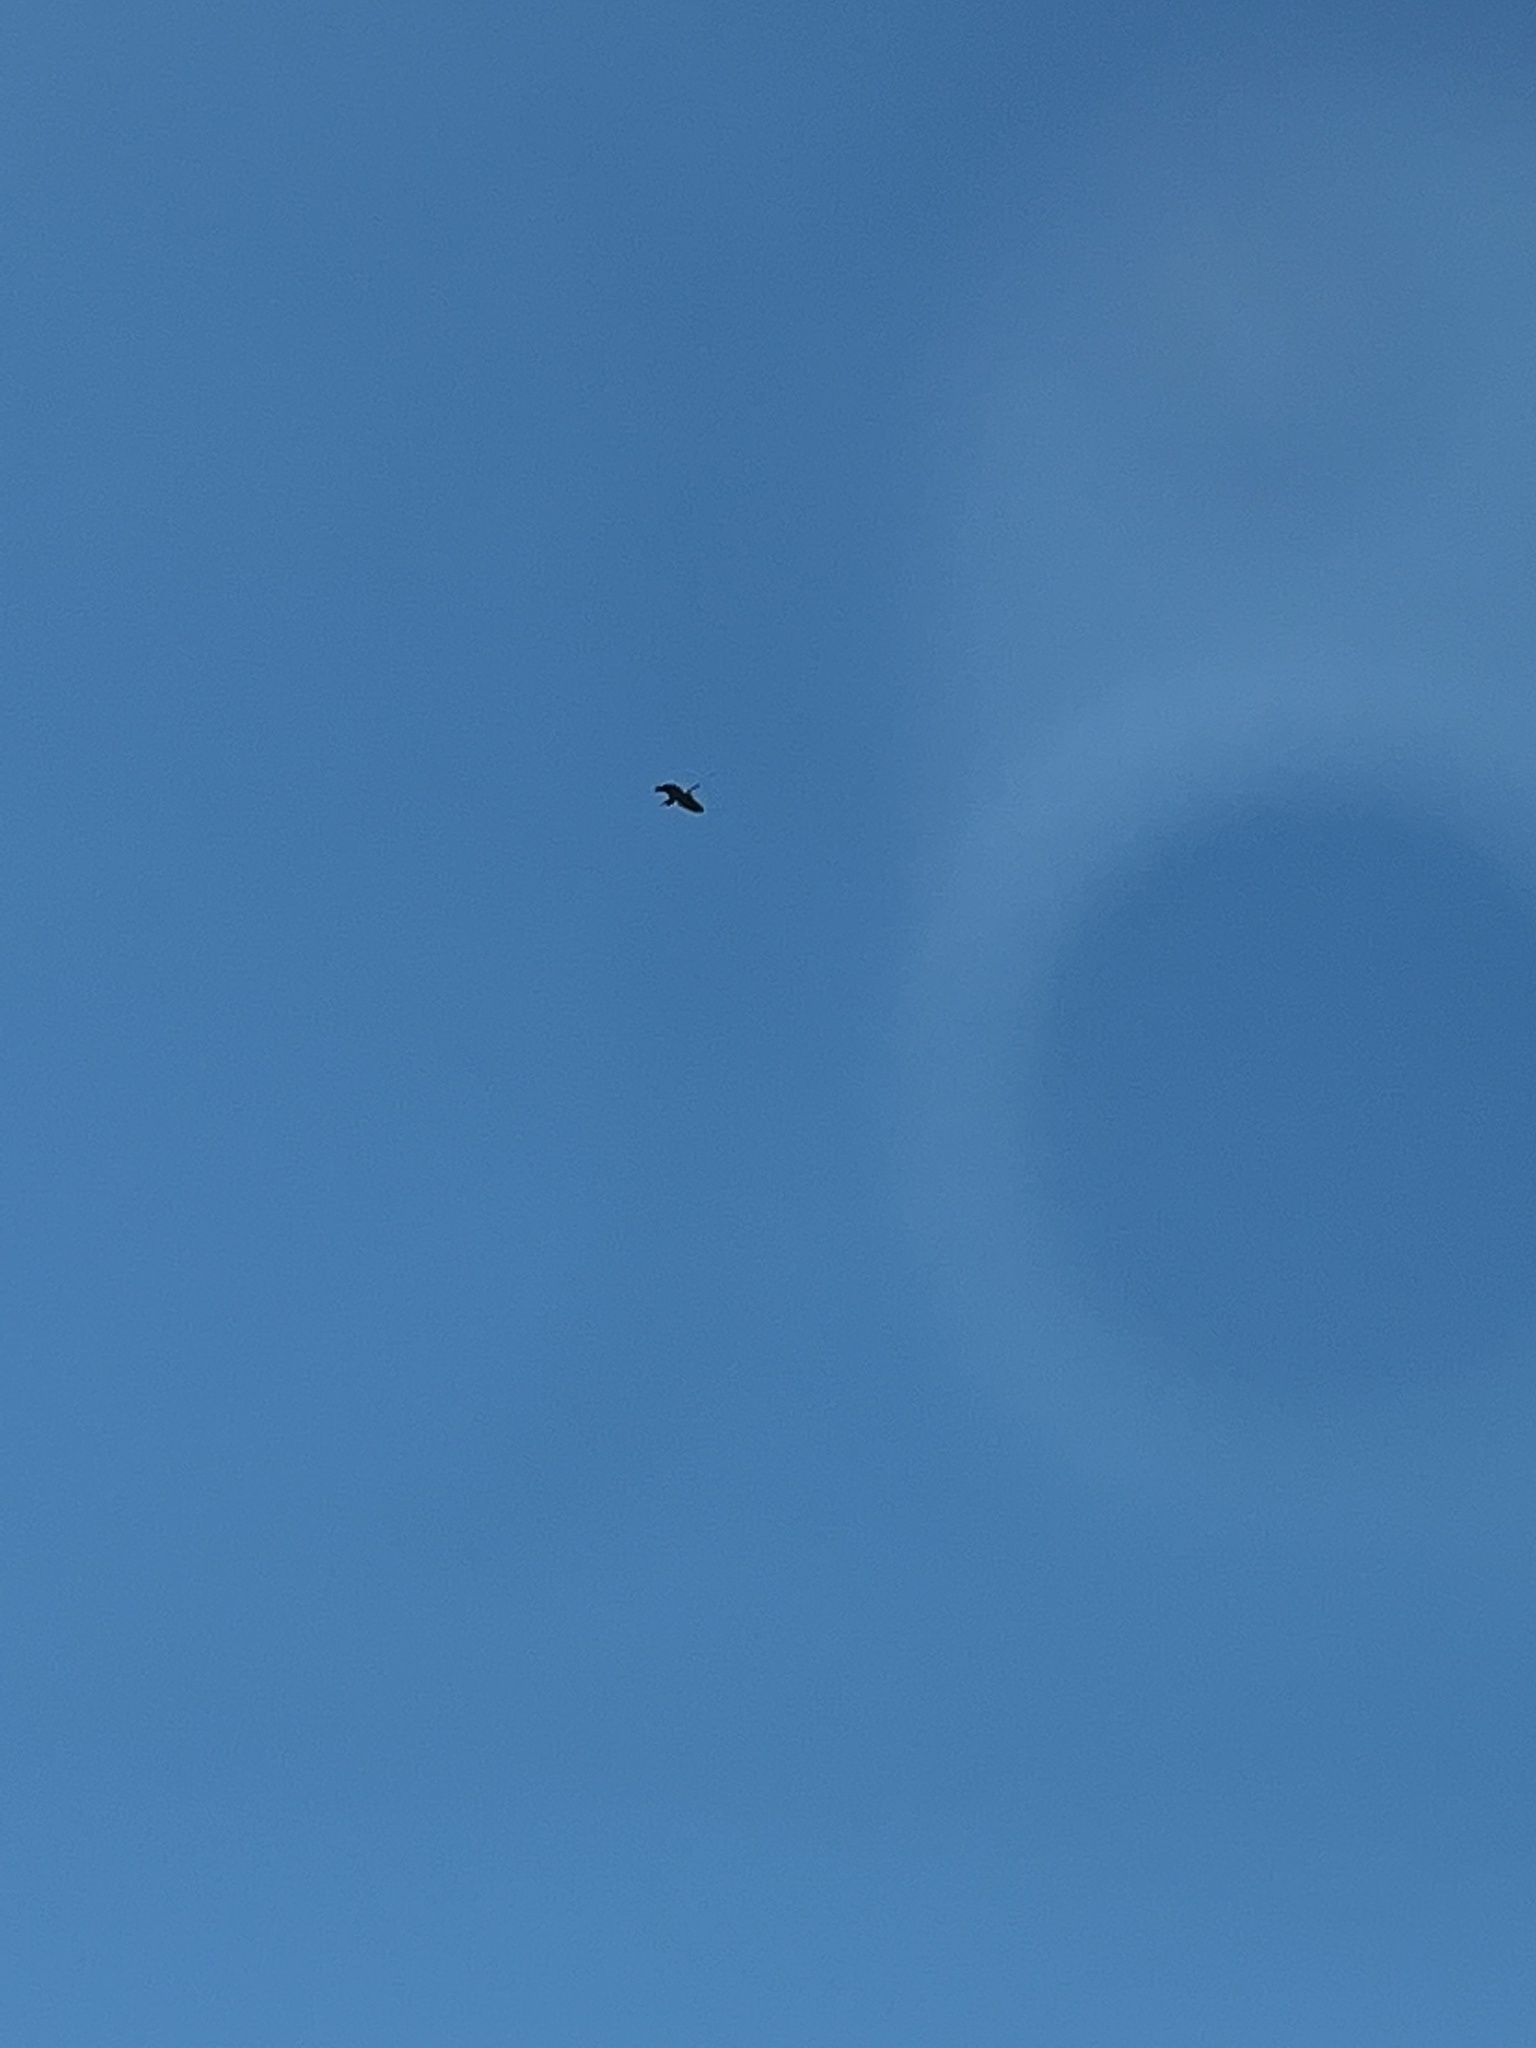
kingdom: Animalia
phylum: Chordata
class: Aves
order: Pelecaniformes
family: Ardeidae
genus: Ardea
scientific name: Ardea herodias
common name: Great blue heron
